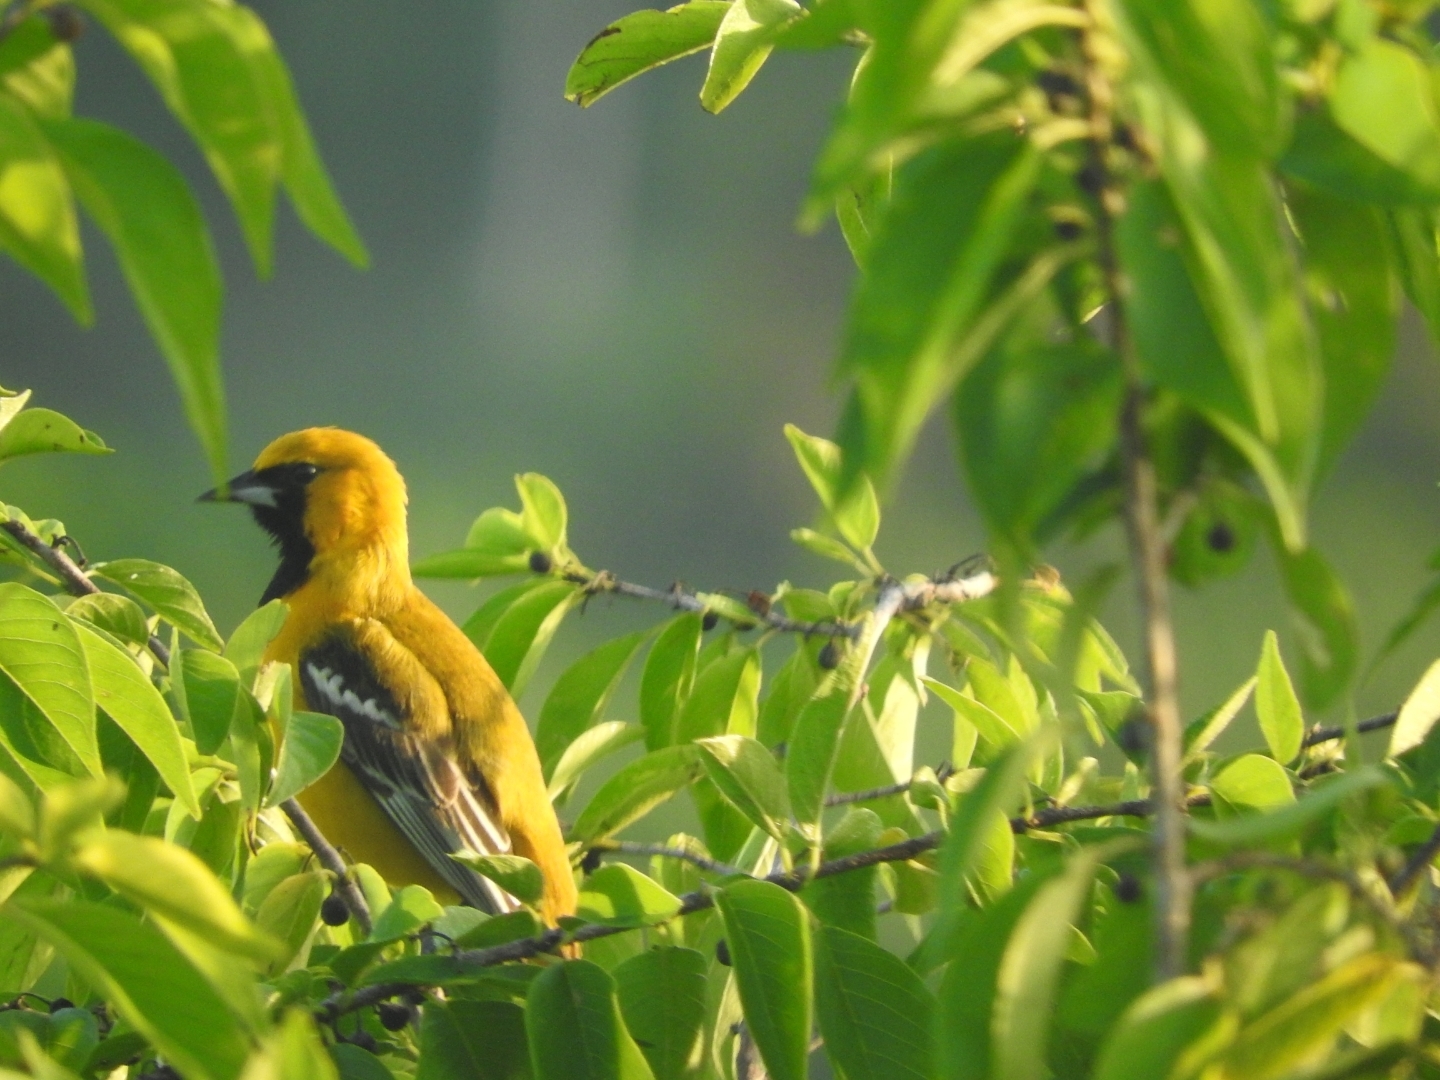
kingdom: Animalia
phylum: Chordata
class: Aves
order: Passeriformes
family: Icteridae
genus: Icterus
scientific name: Icterus auratus
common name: Orange oriole
